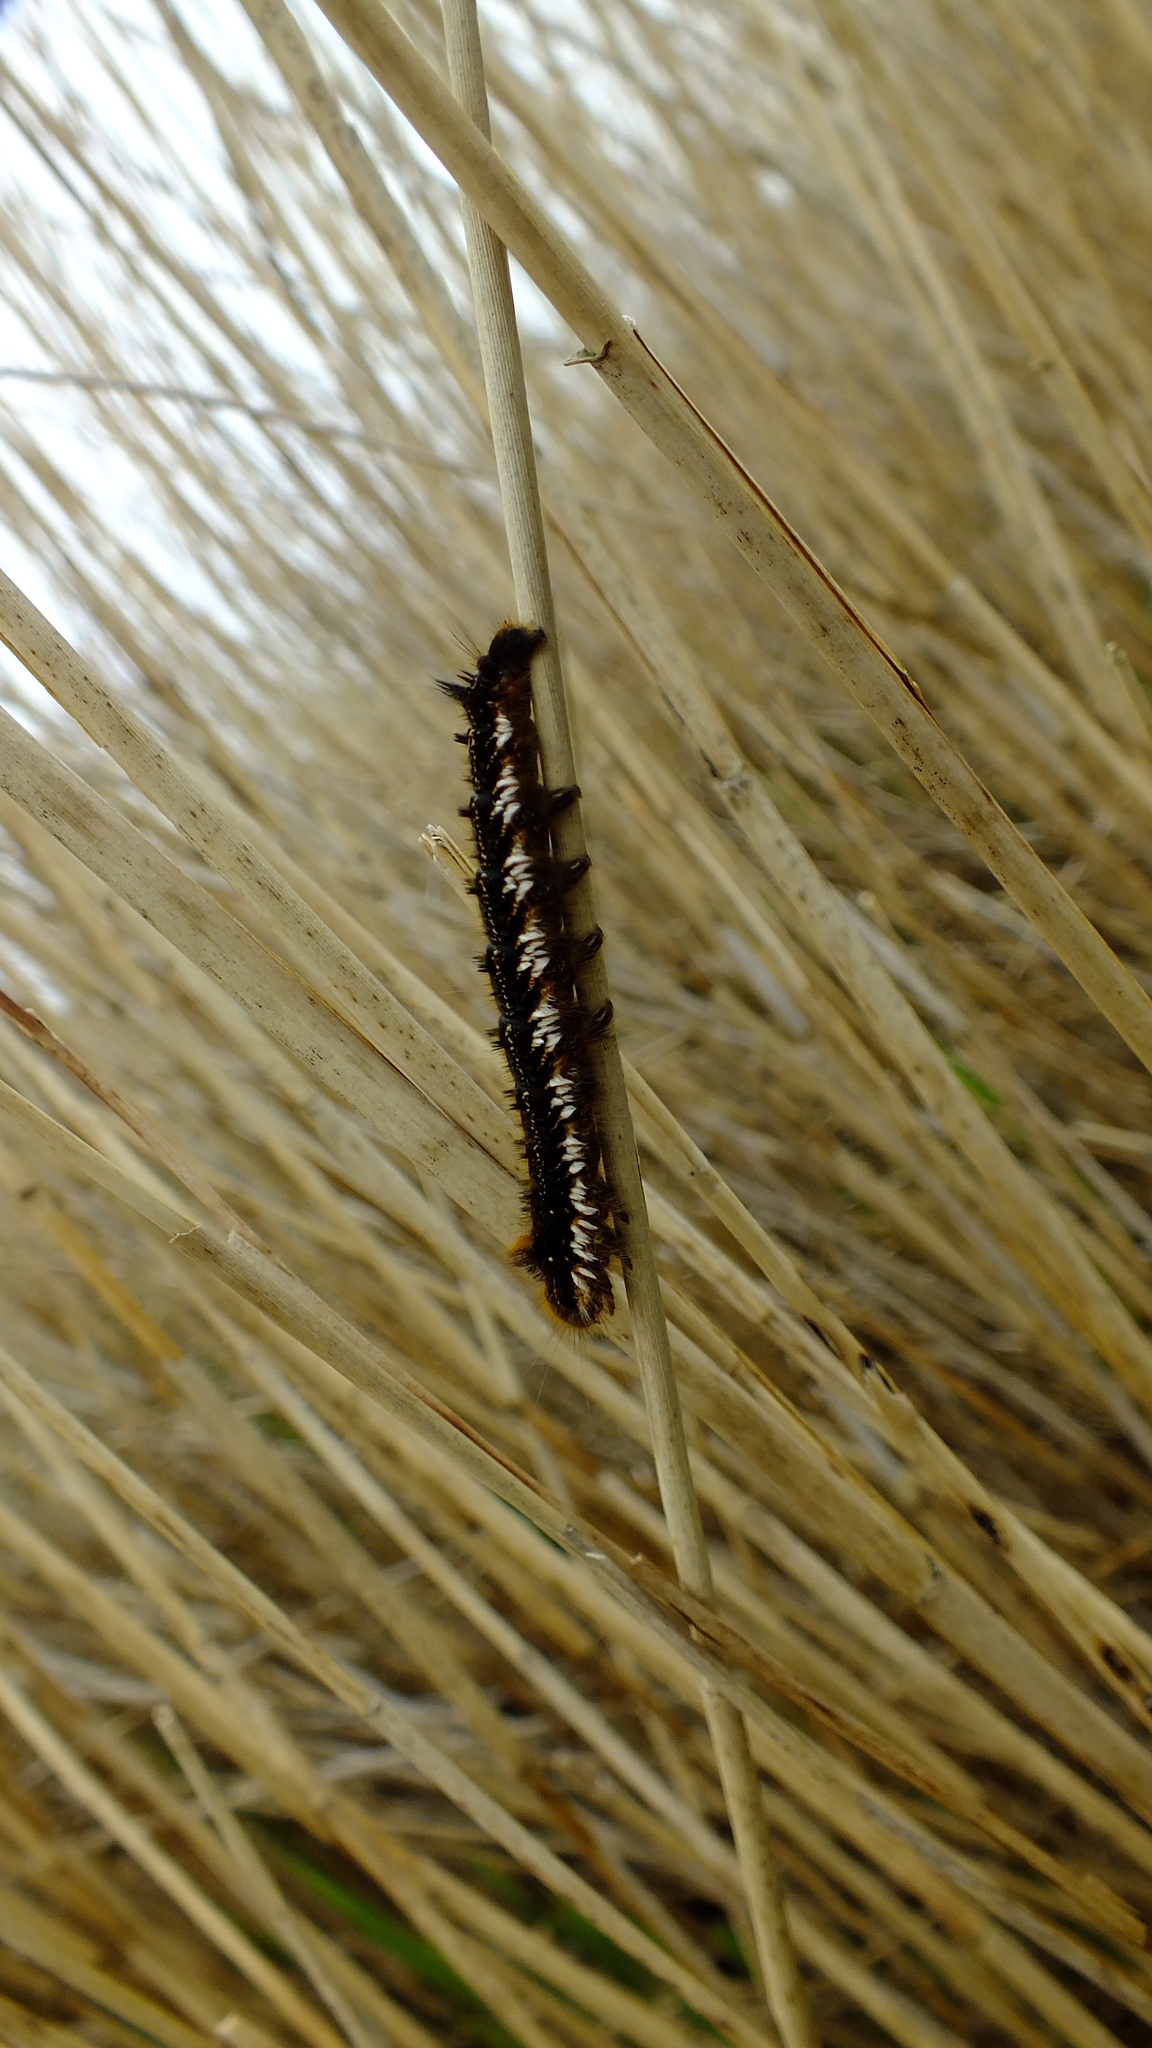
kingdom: Animalia
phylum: Arthropoda
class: Insecta
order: Lepidoptera
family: Lasiocampidae
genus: Euthrix
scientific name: Euthrix potatoria
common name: Drinker
